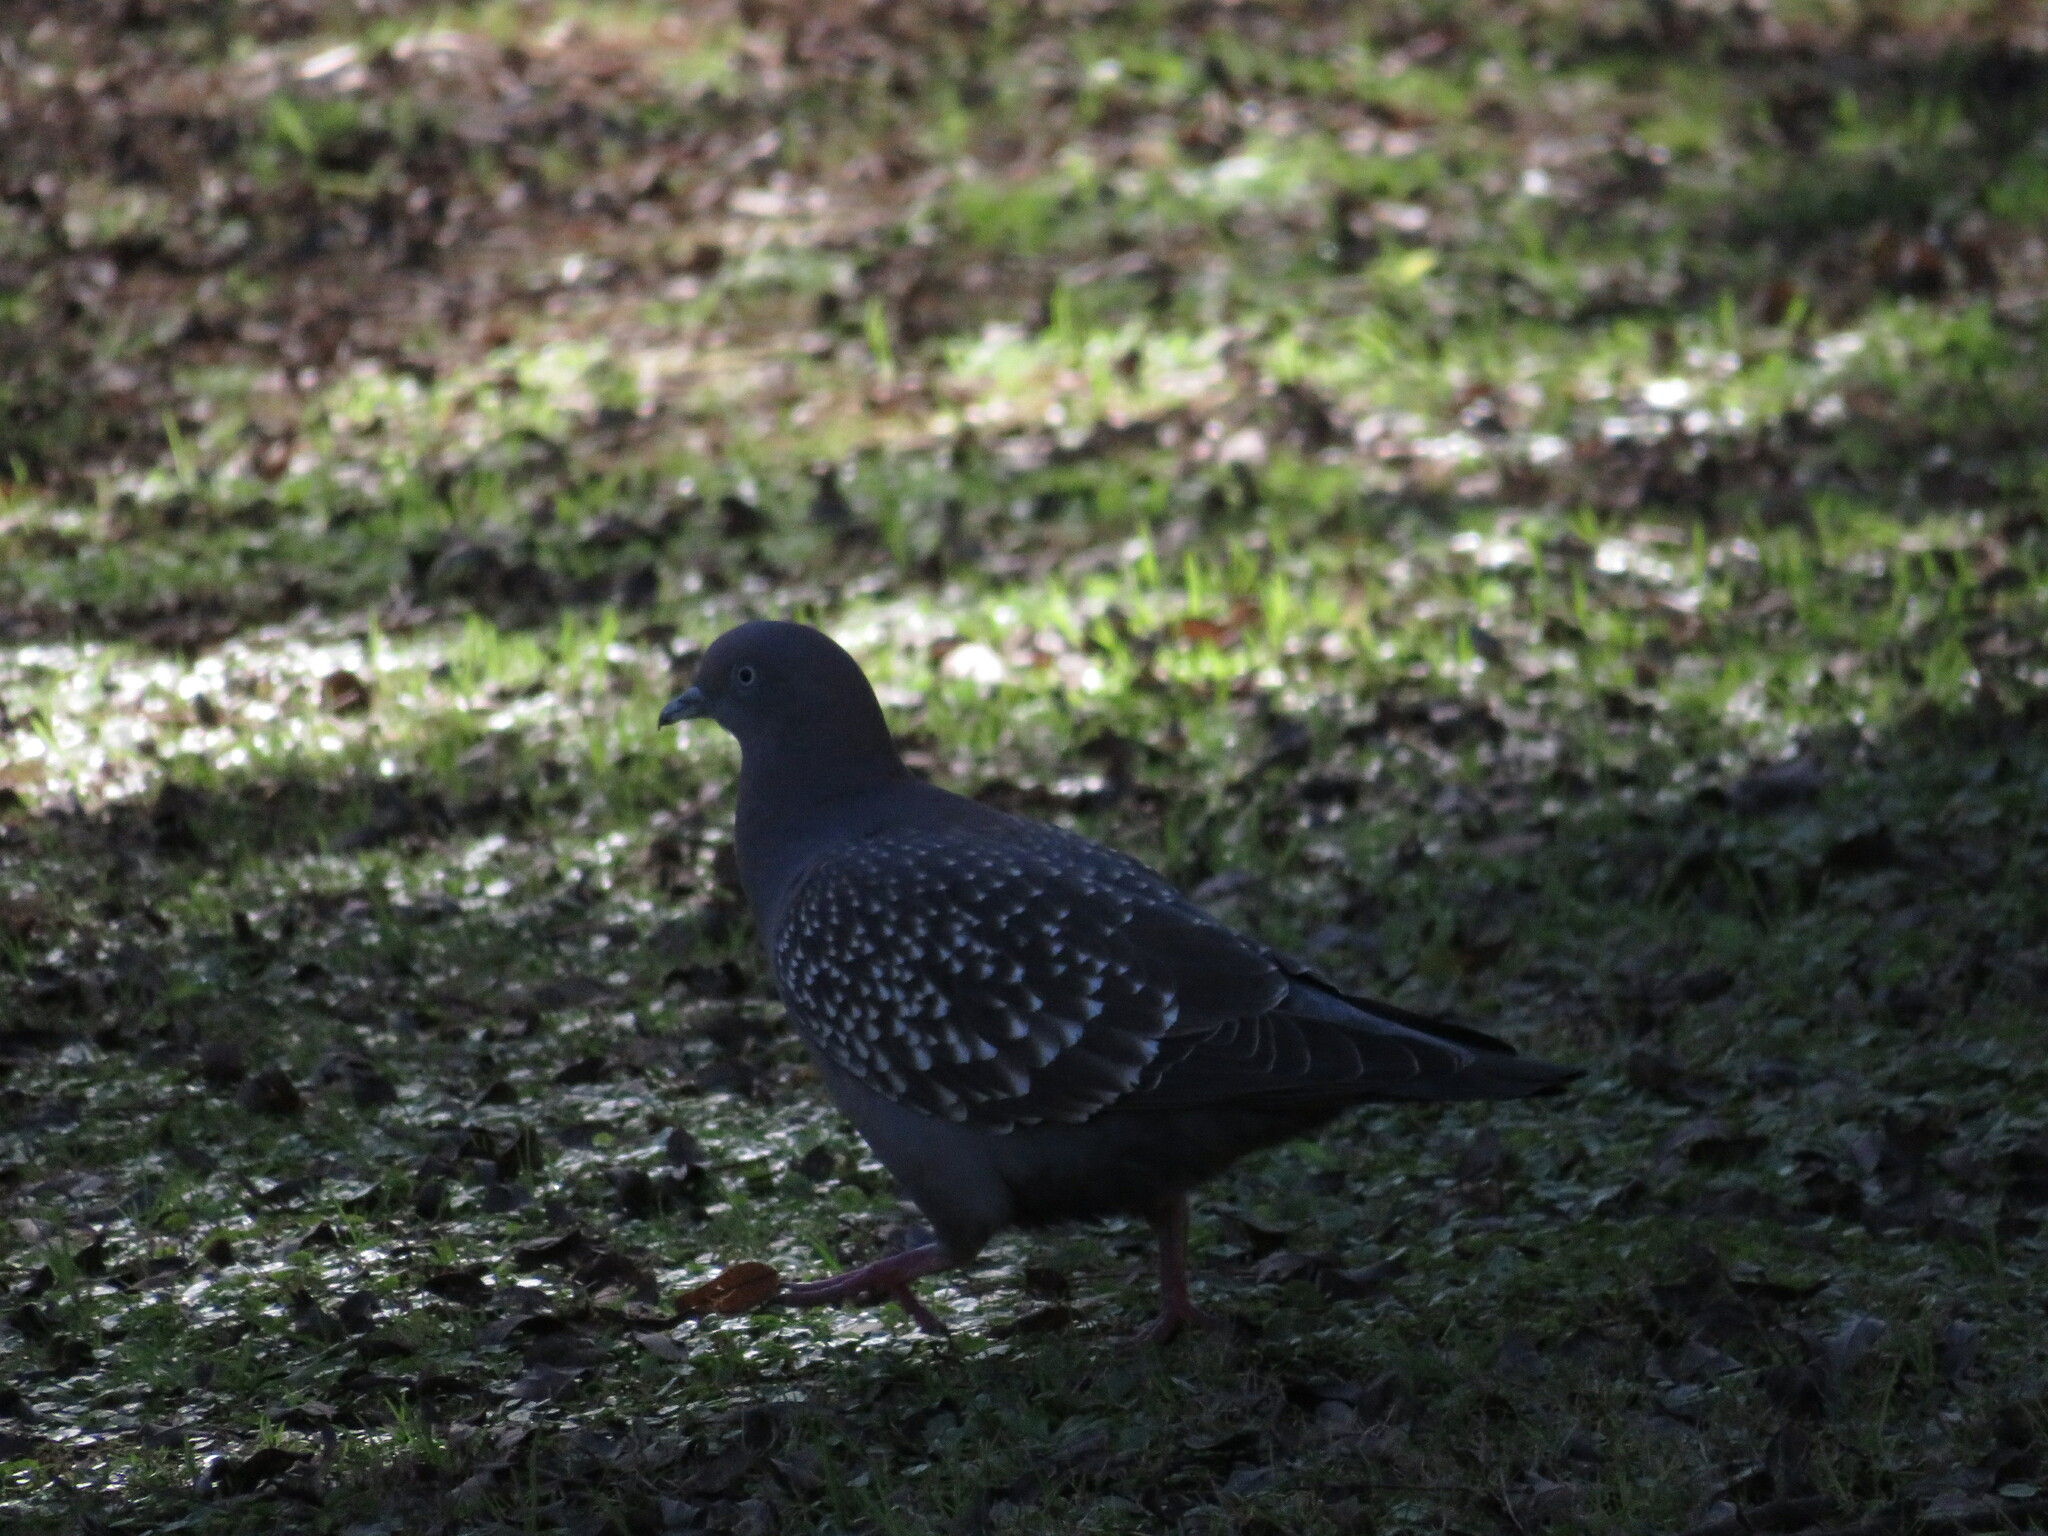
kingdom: Animalia
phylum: Chordata
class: Aves
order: Columbiformes
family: Columbidae
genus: Patagioenas
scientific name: Patagioenas maculosa
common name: Spot-winged pigeon
